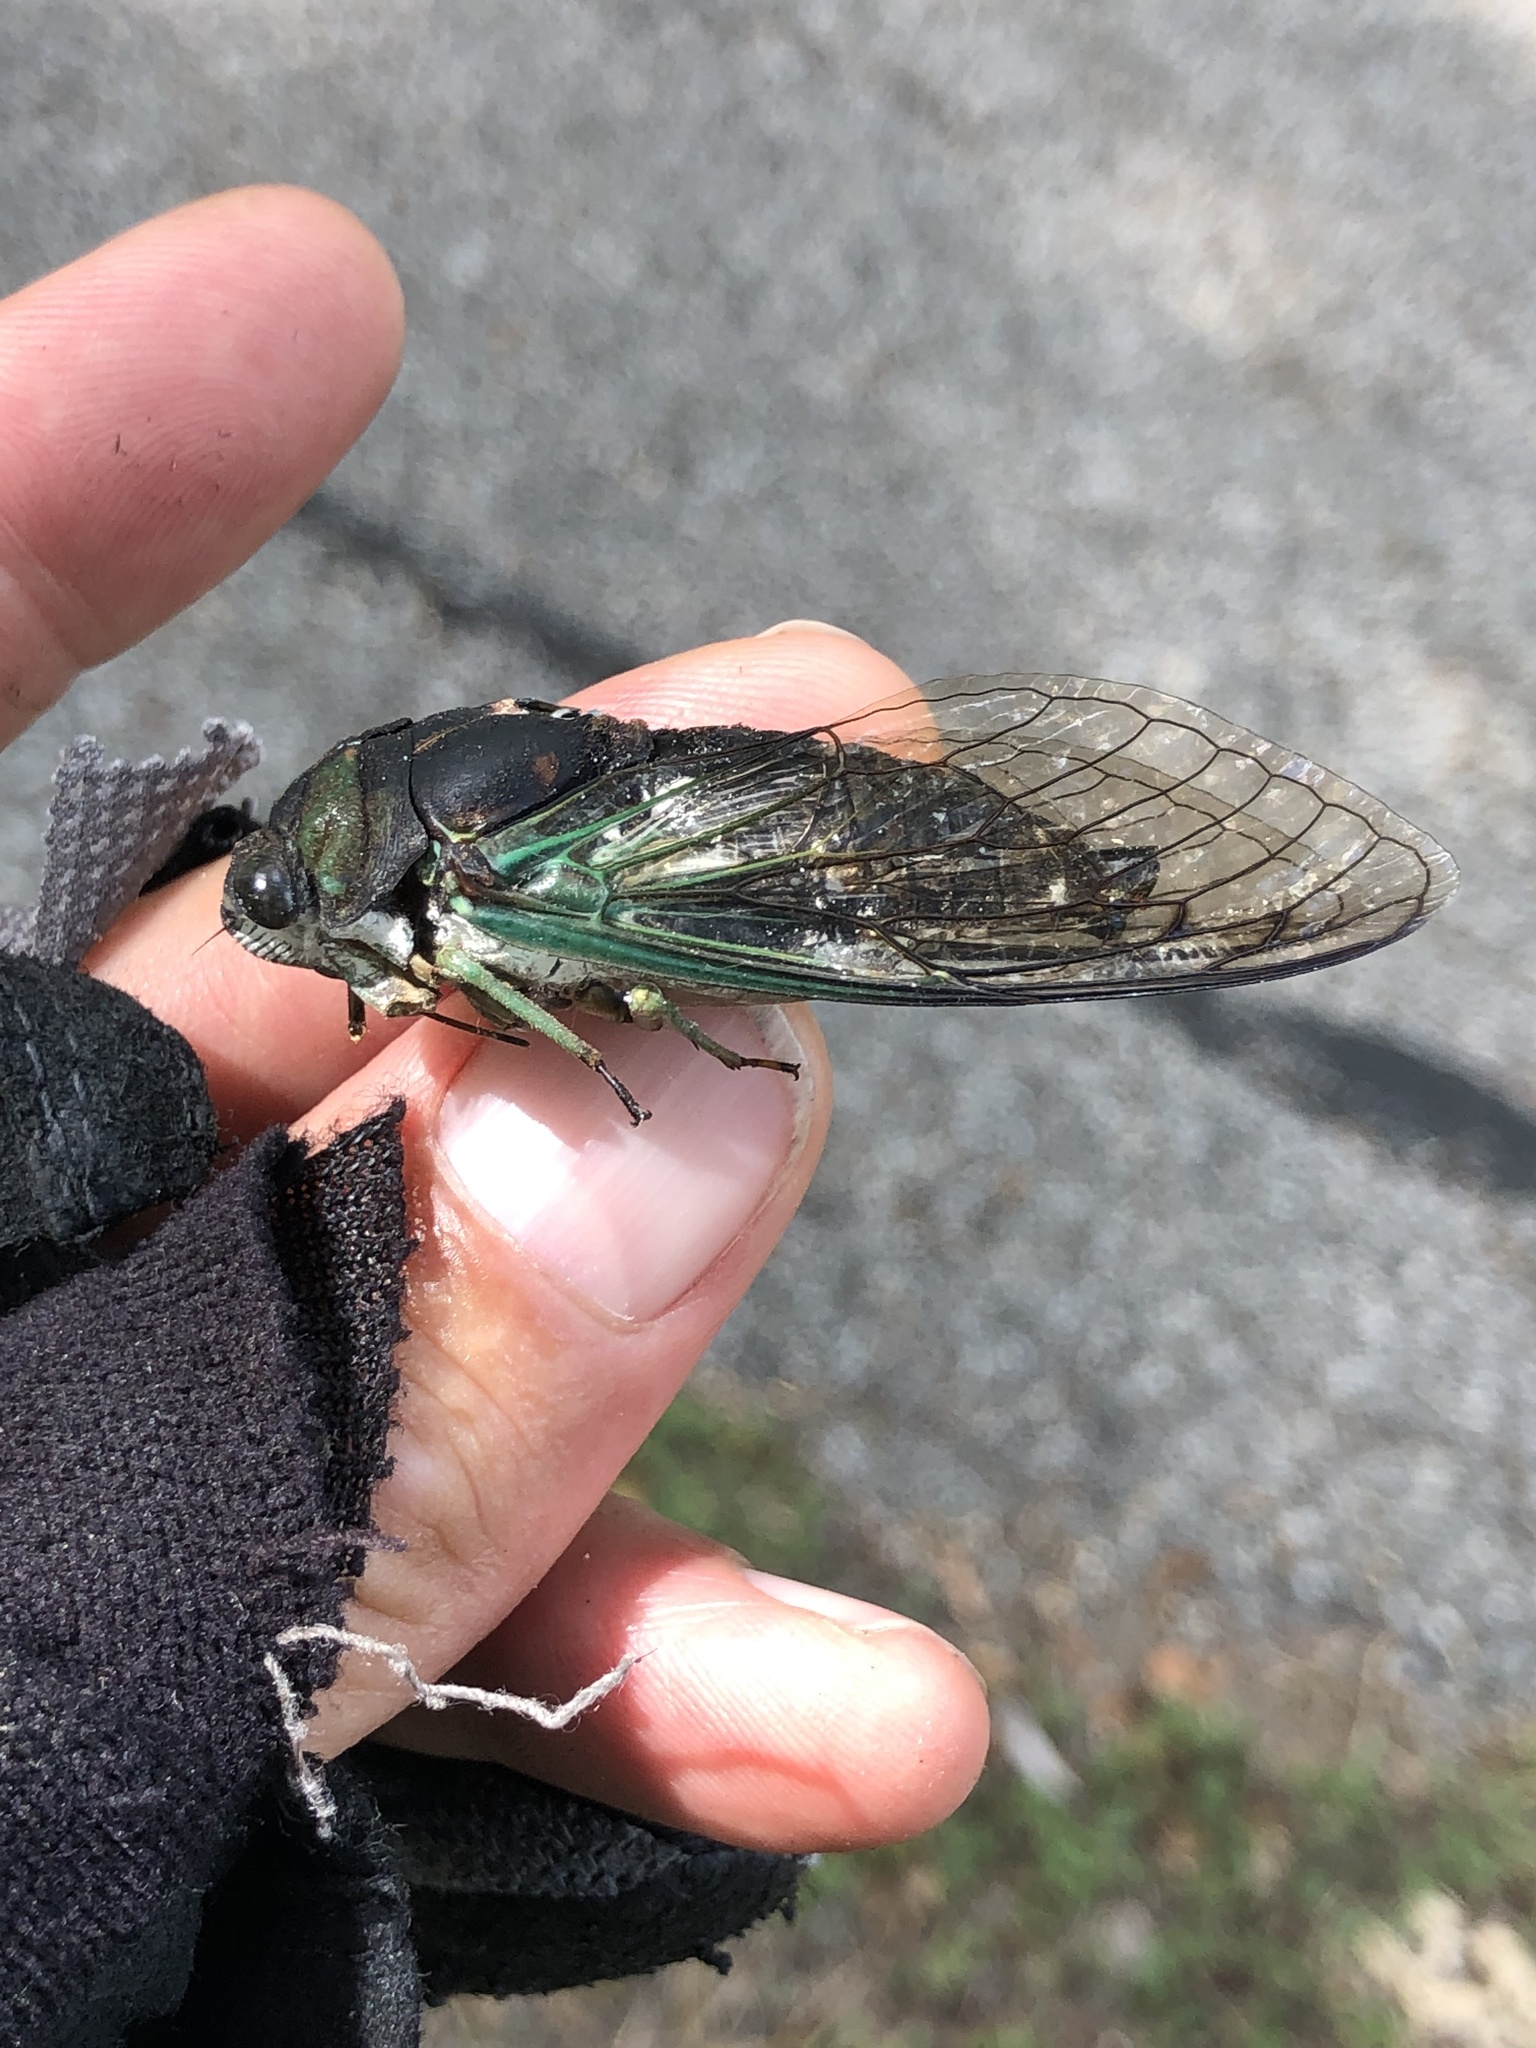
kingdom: Animalia
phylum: Arthropoda
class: Insecta
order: Hemiptera
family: Cicadidae
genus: Neotibicen
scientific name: Neotibicen tibicen
